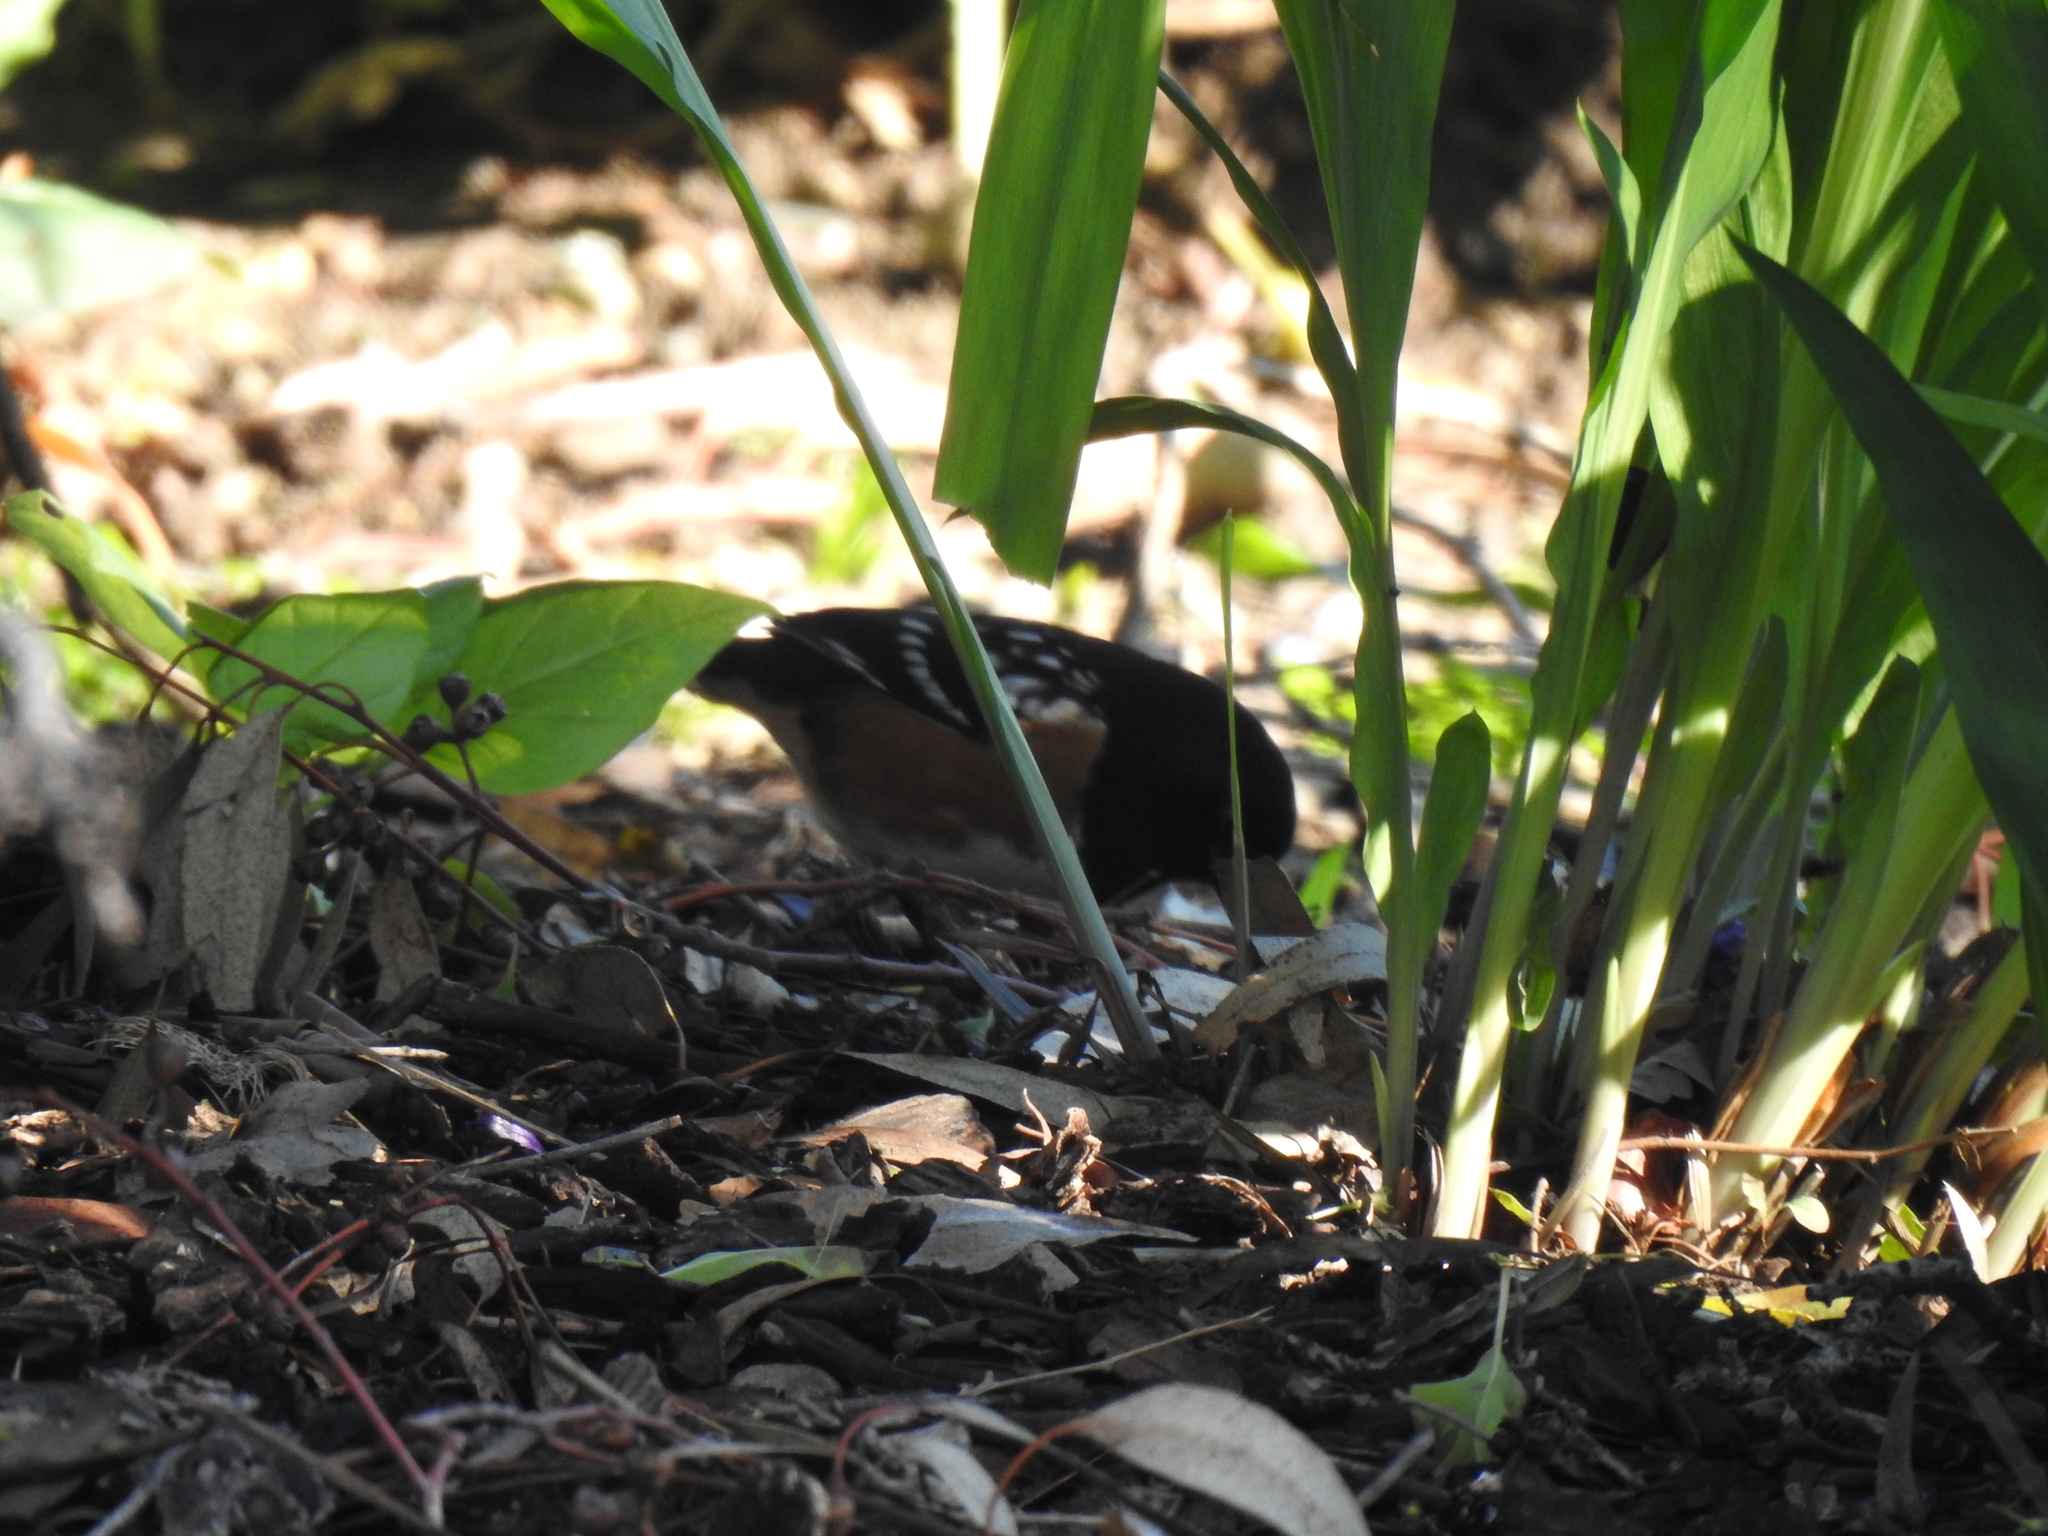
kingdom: Animalia
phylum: Chordata
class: Aves
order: Passeriformes
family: Passerellidae
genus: Pipilo
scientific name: Pipilo maculatus
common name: Spotted towhee
